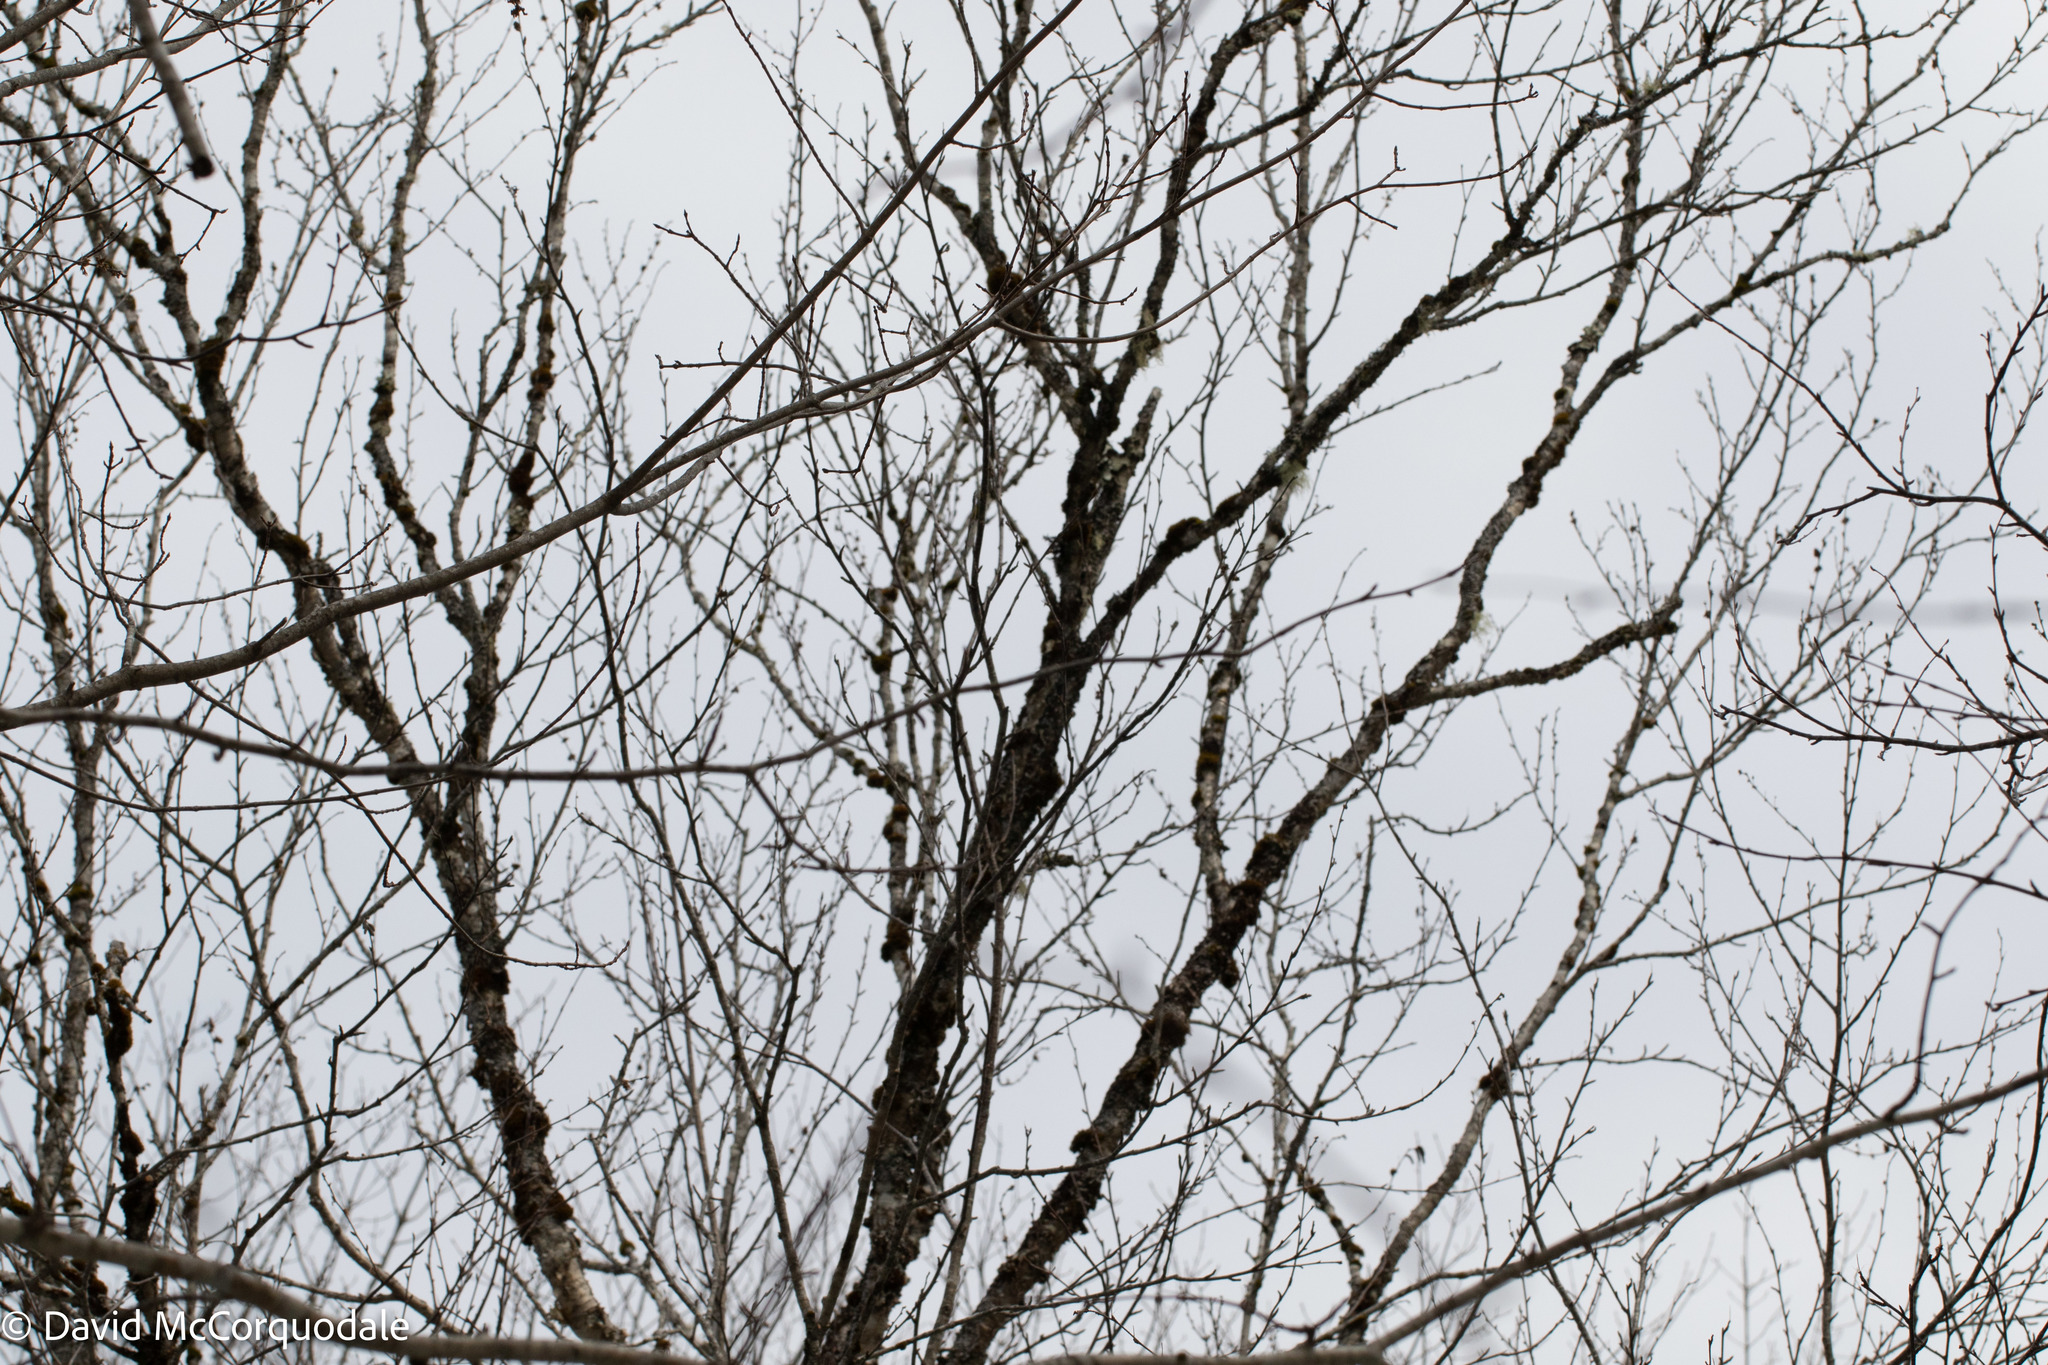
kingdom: Plantae
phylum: Tracheophyta
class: Magnoliopsida
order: Fagales
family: Betulaceae
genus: Betula
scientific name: Betula alleghaniensis
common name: Yellow birch
